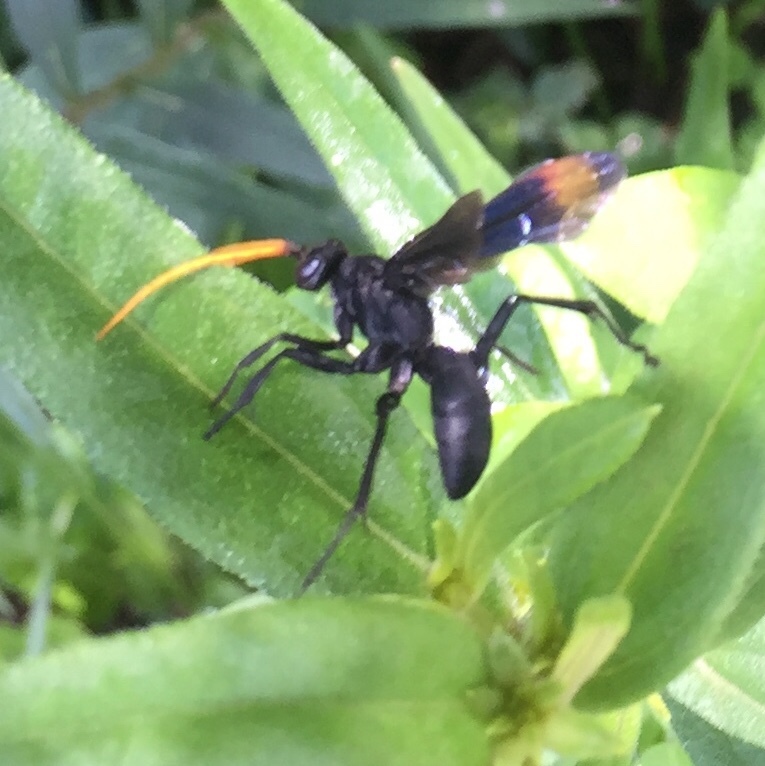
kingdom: Animalia
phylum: Arthropoda
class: Insecta
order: Hymenoptera
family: Pompilidae
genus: Entypus
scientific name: Entypus unifasciatus
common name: Eastern tawny-horned spider wasp
